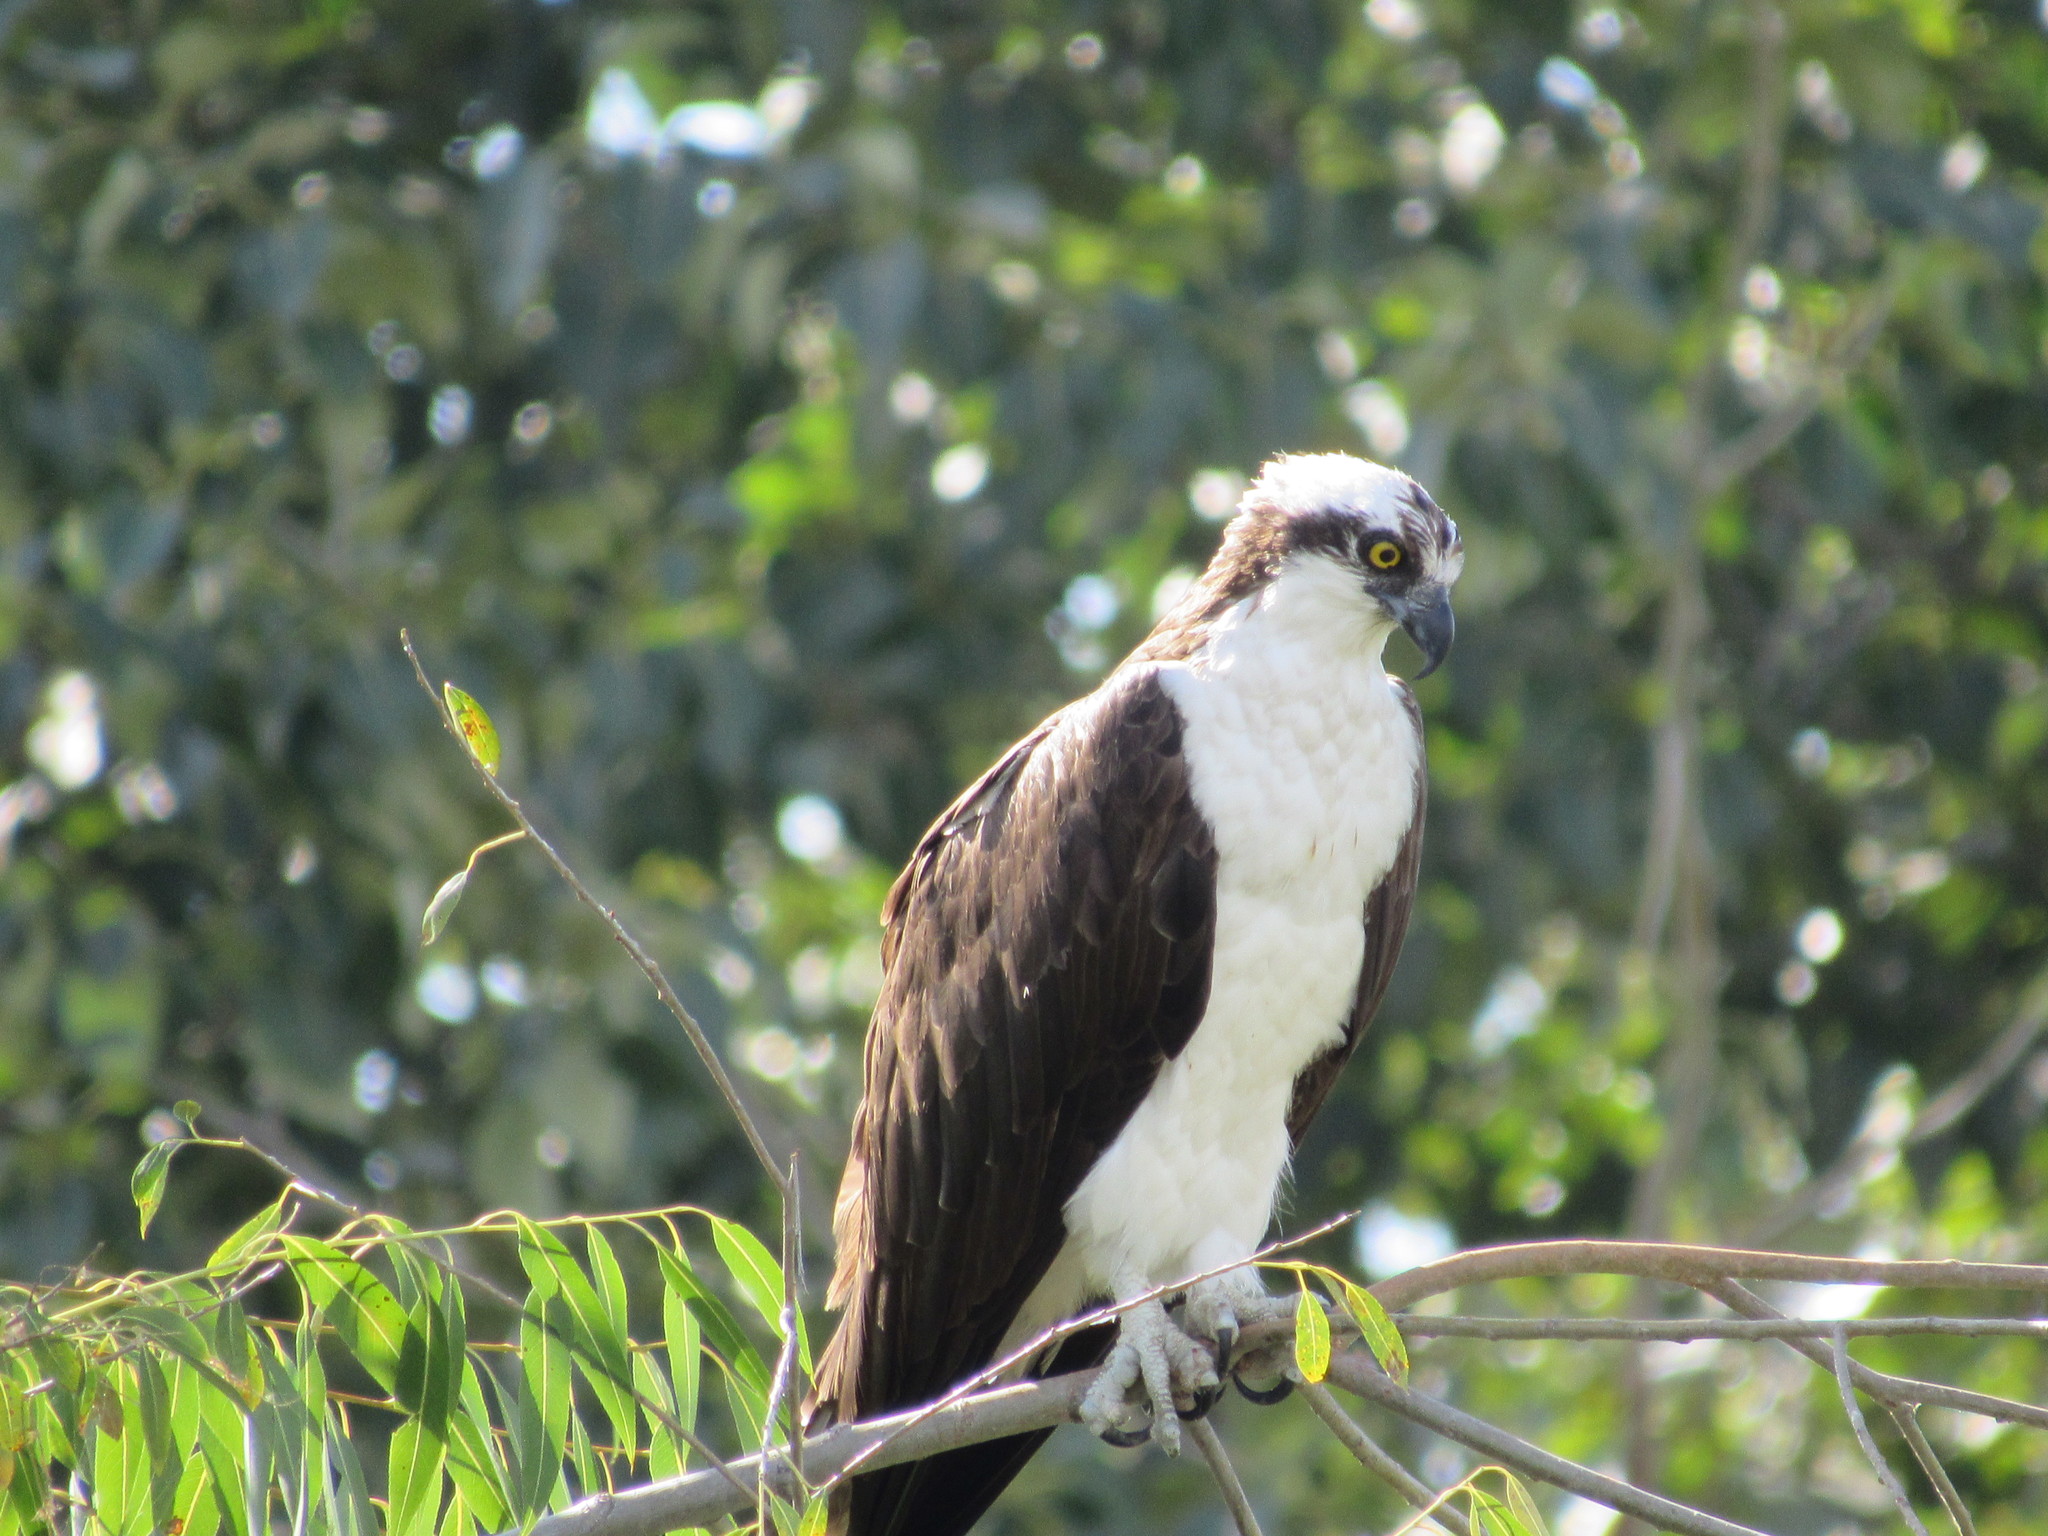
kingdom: Animalia
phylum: Chordata
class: Aves
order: Accipitriformes
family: Pandionidae
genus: Pandion
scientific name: Pandion haliaetus
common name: Osprey
